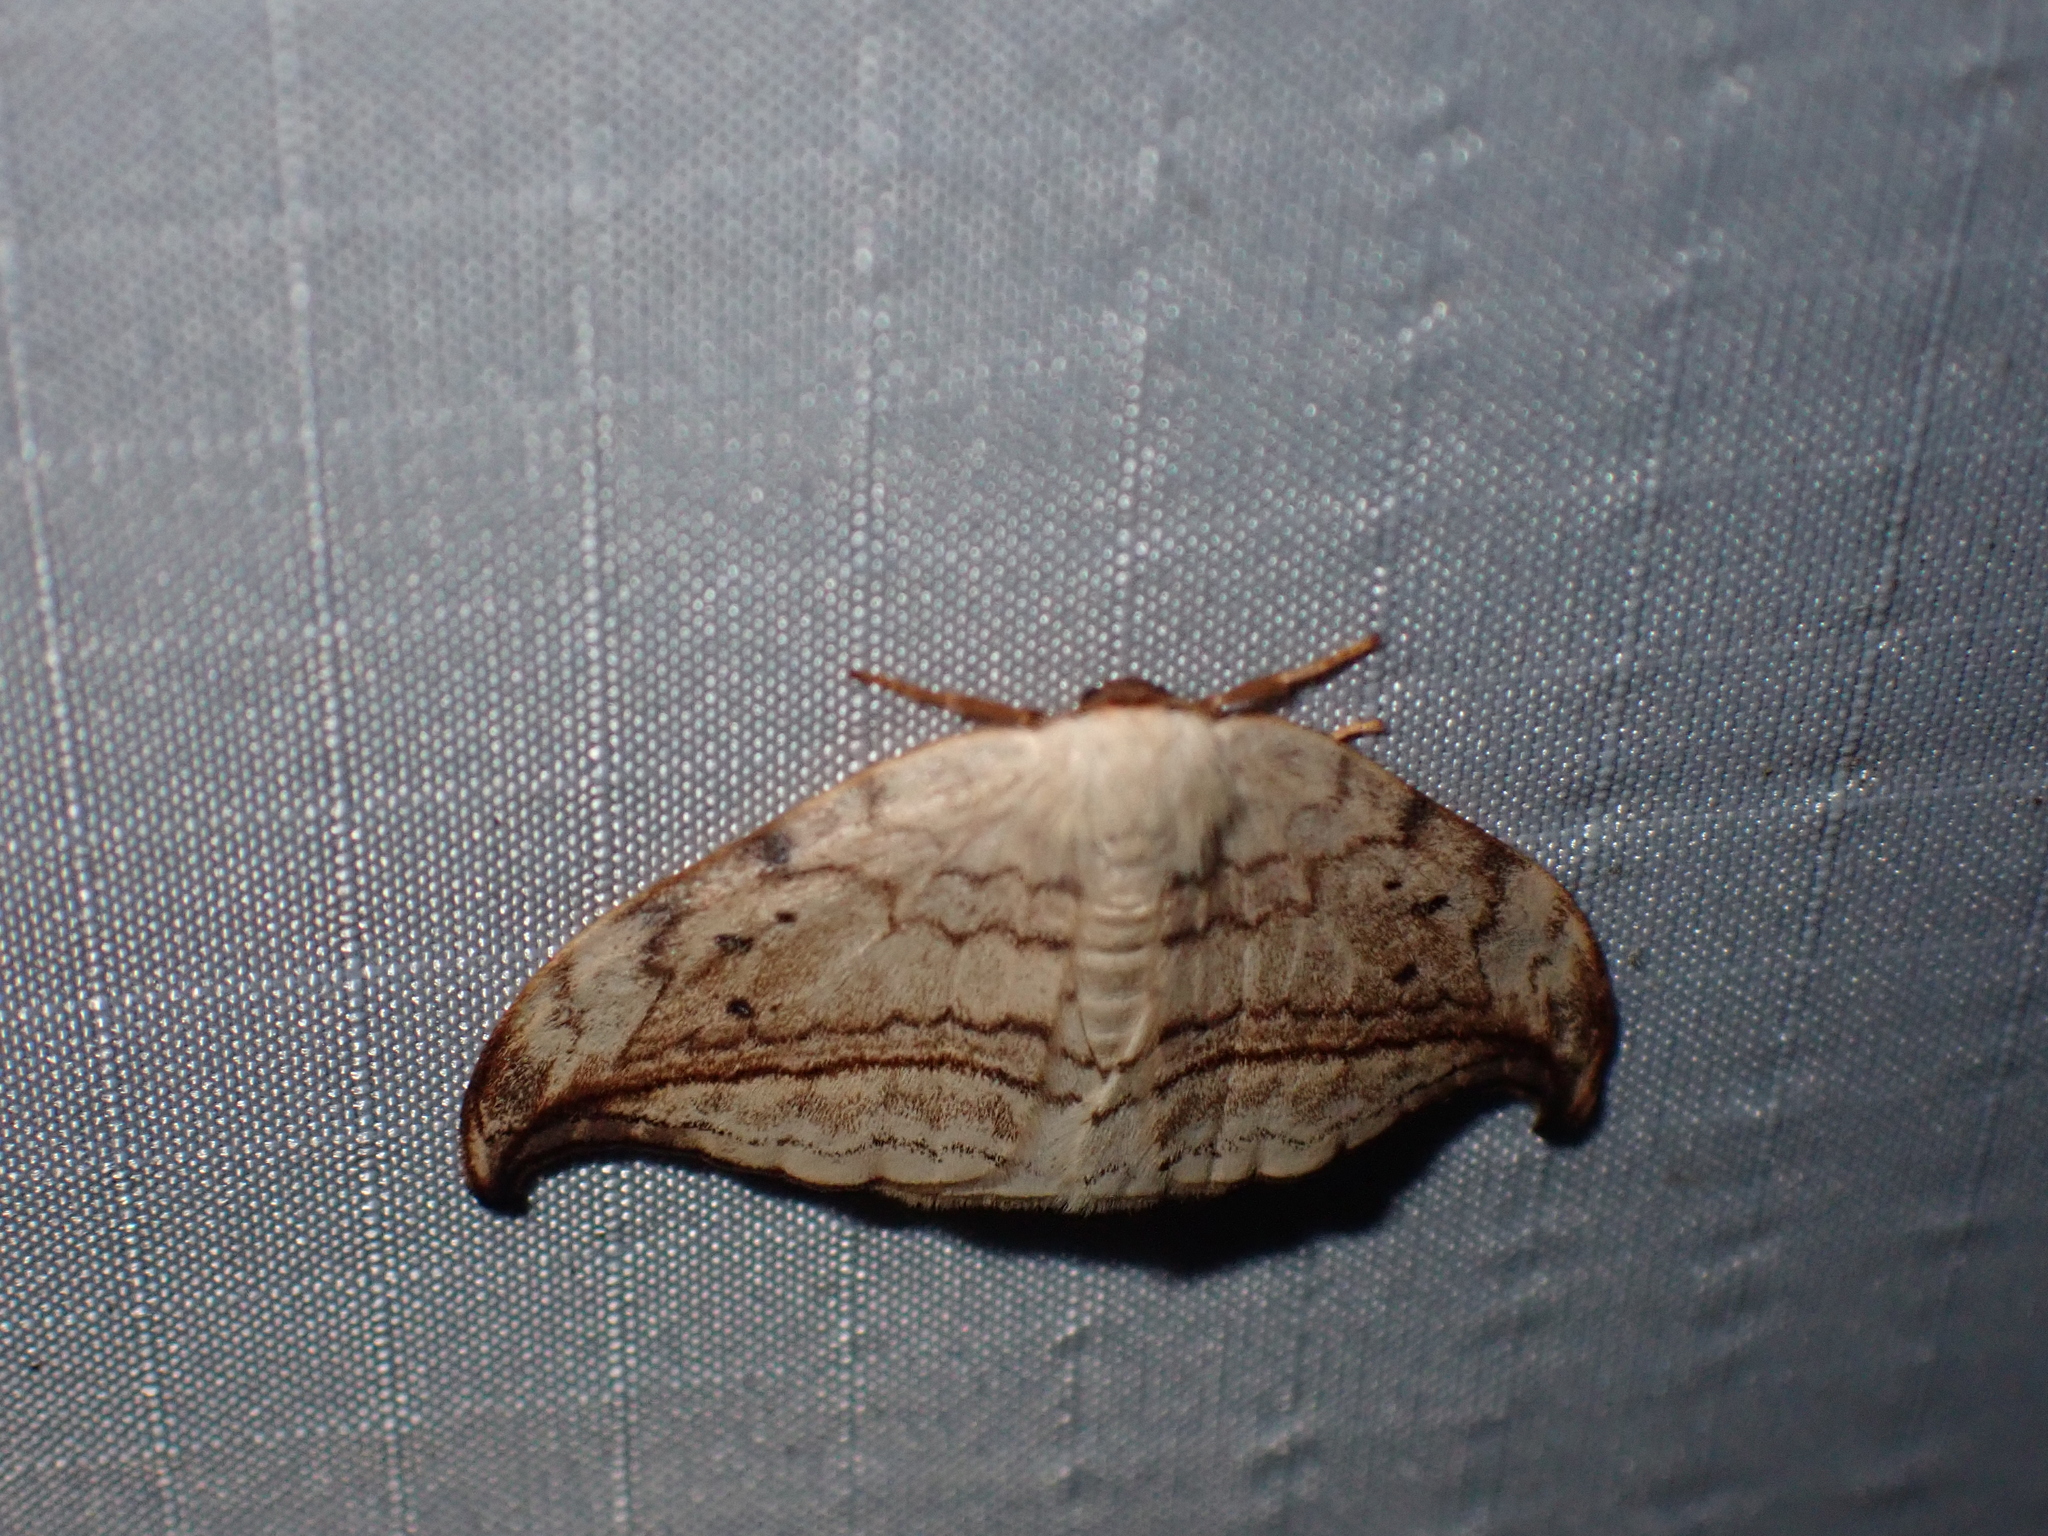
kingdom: Animalia
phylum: Arthropoda
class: Insecta
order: Lepidoptera
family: Drepanidae
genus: Drepana
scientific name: Drepana arcuata
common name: Arched hooktip moth
